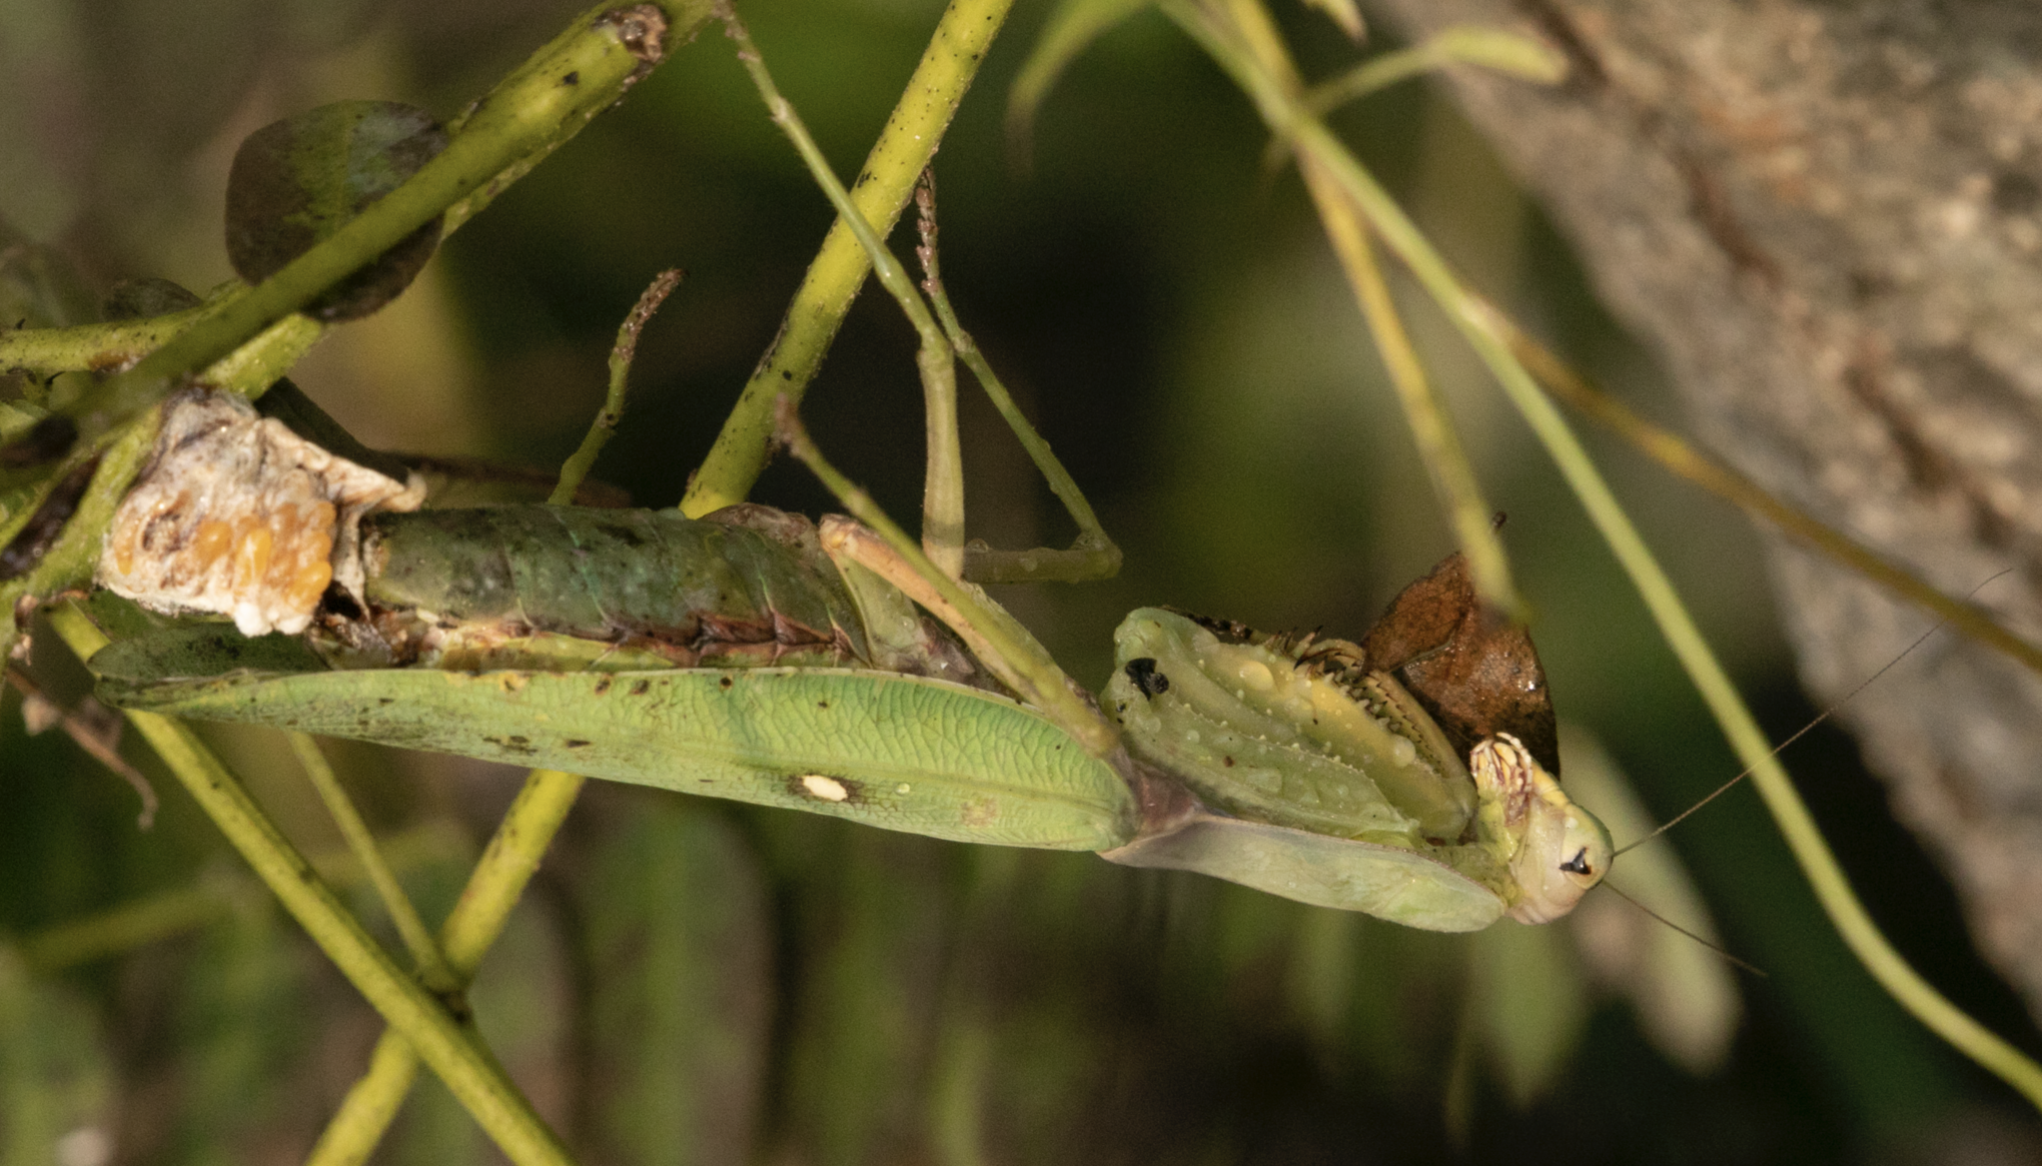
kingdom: Animalia
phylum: Arthropoda
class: Insecta
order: Mantodea
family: Mantidae
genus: Hierodula
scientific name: Hierodula transcaucasica
